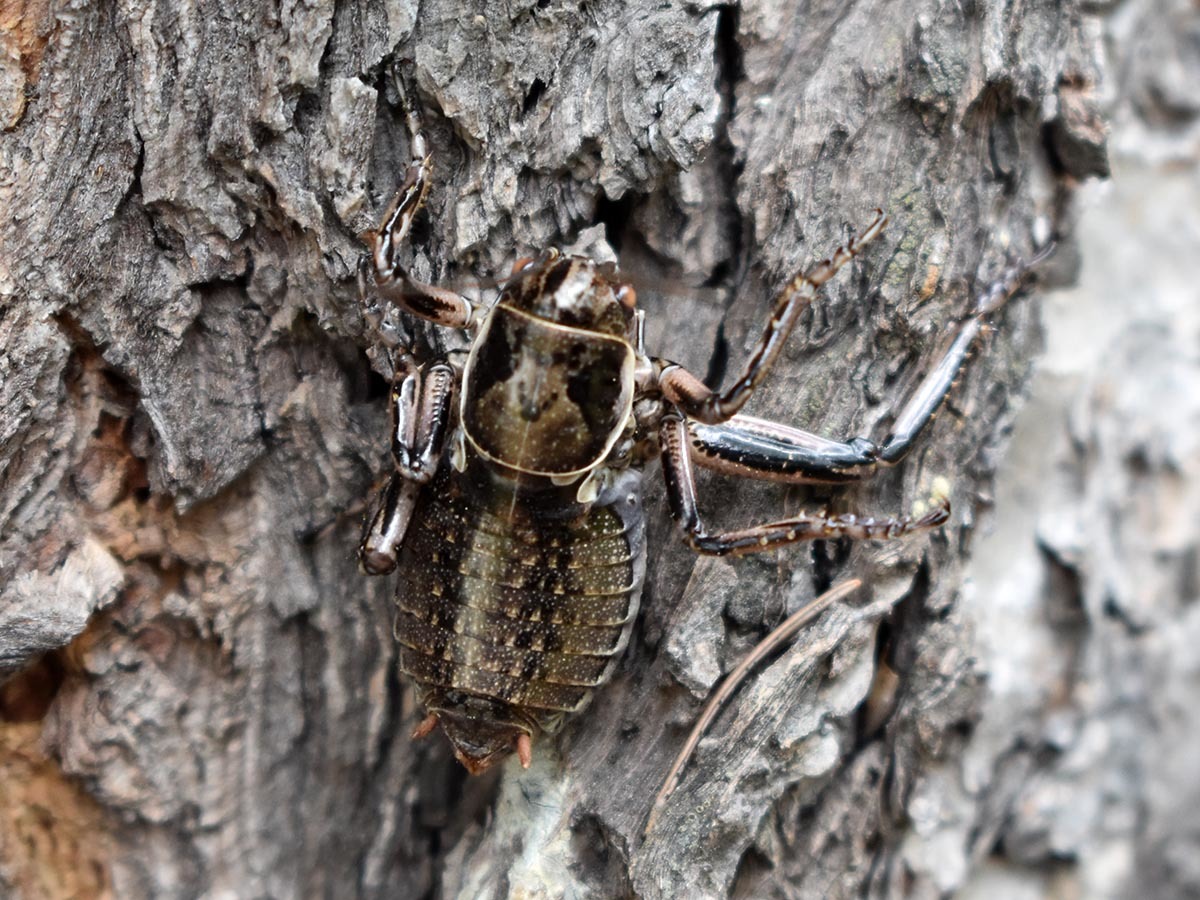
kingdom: Animalia
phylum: Arthropoda
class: Insecta
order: Orthoptera
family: Prophalangopsidae
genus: Cyphoderris
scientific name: Cyphoderris monstrosa
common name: Great grig
